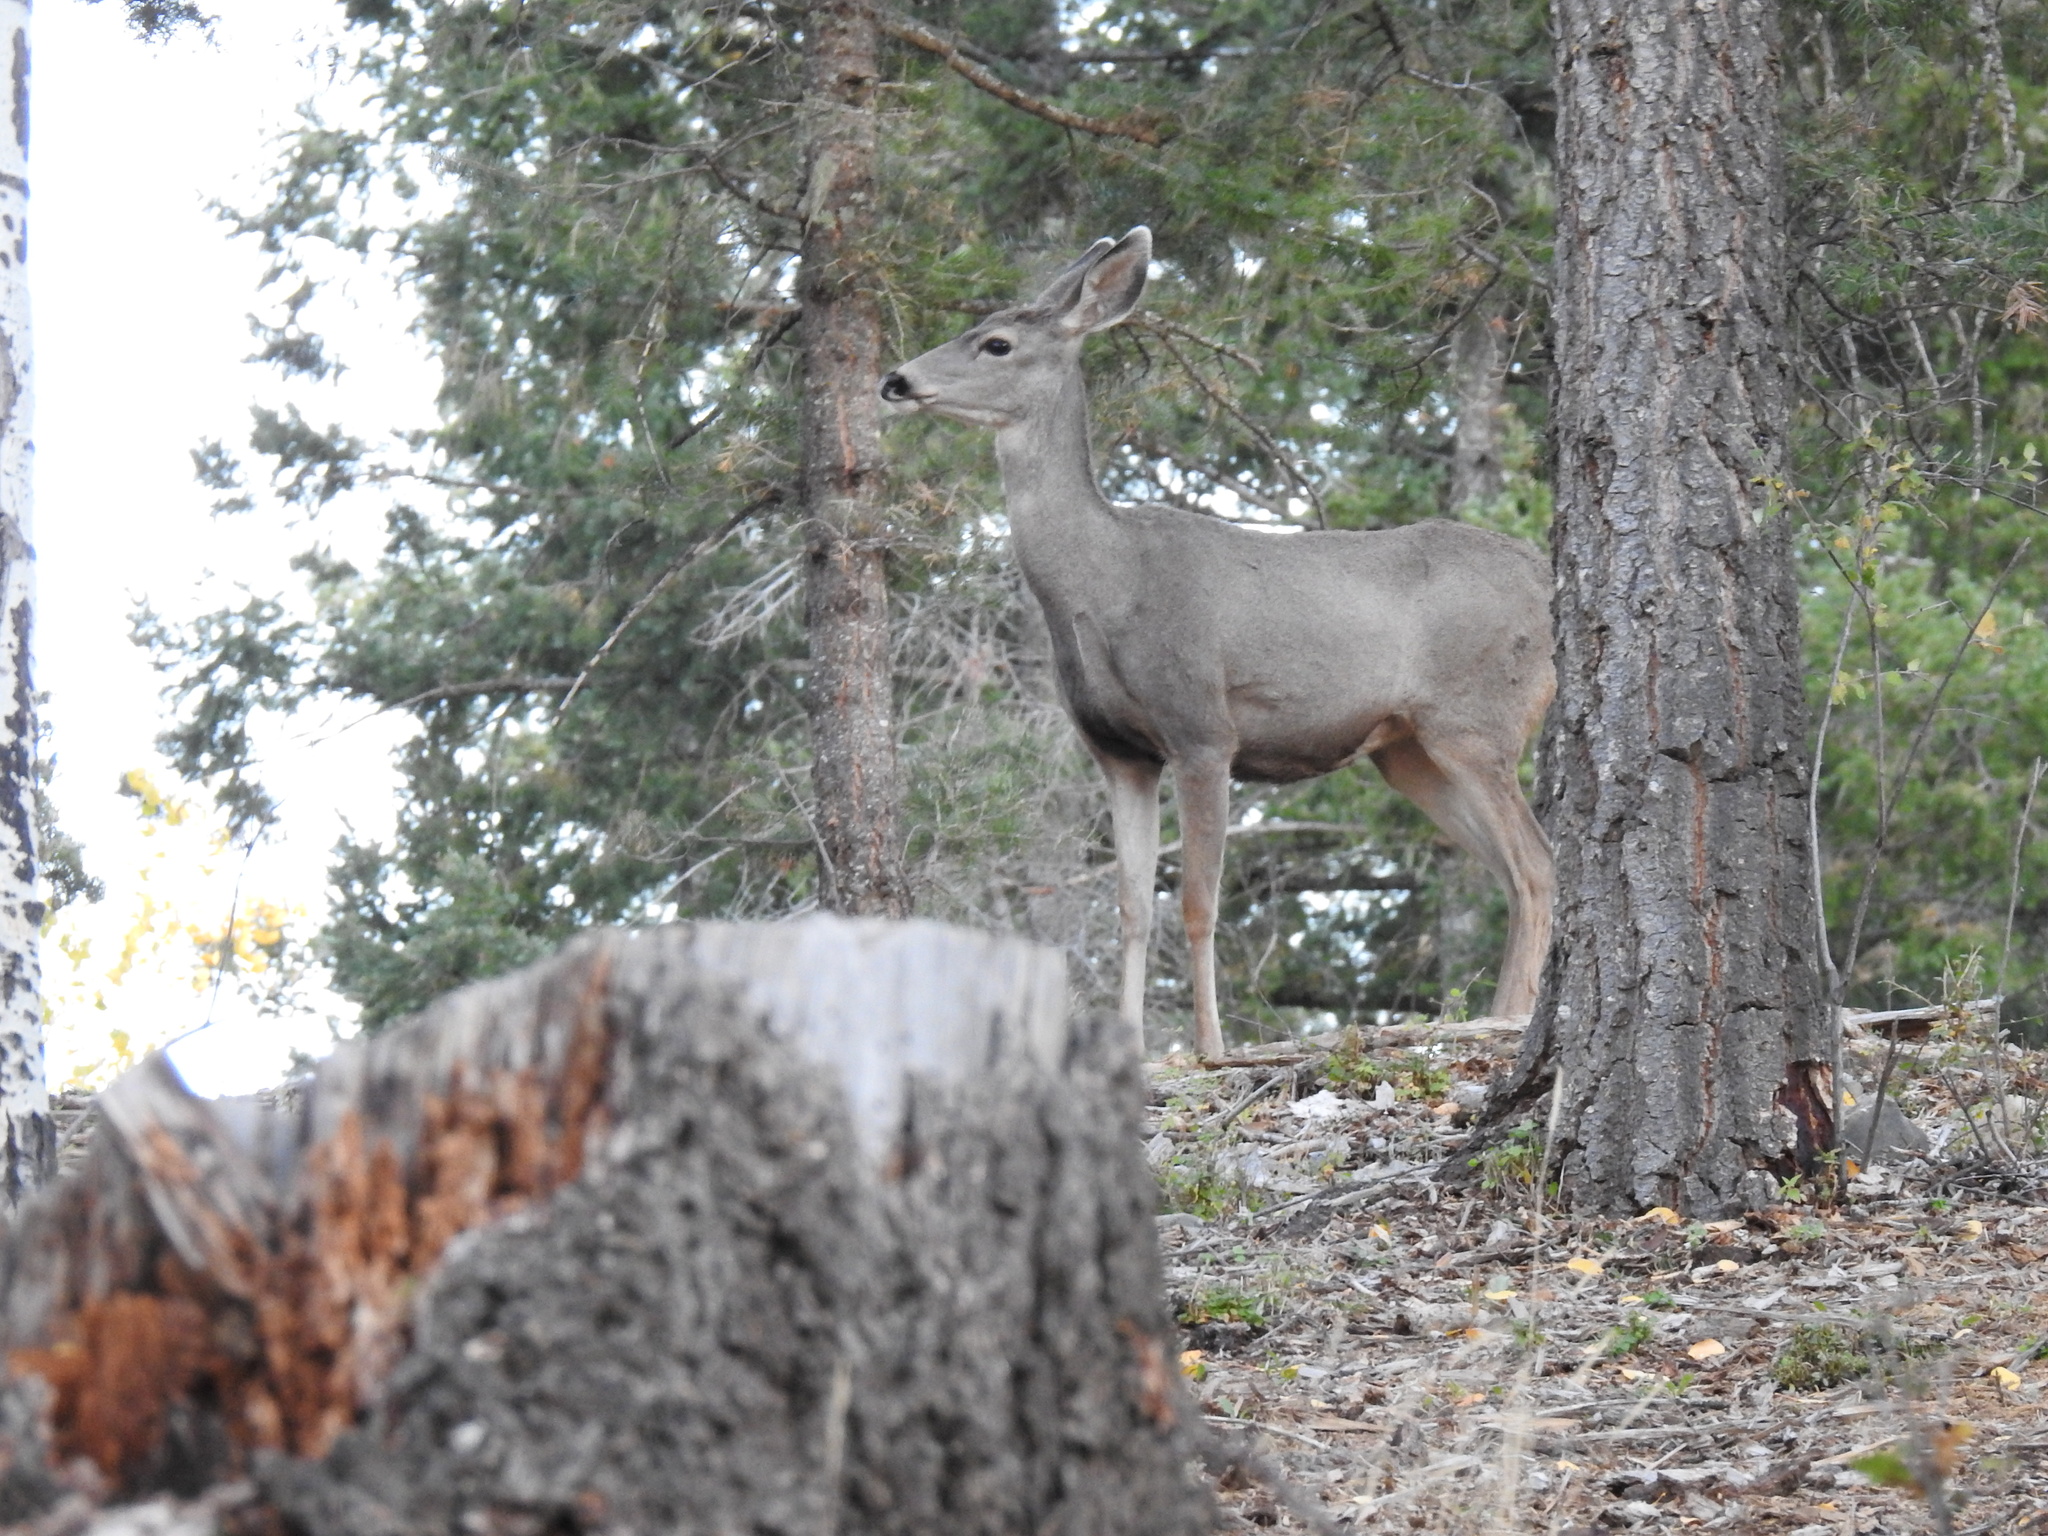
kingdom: Animalia
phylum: Chordata
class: Mammalia
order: Artiodactyla
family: Cervidae
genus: Odocoileus
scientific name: Odocoileus hemionus
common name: Mule deer
